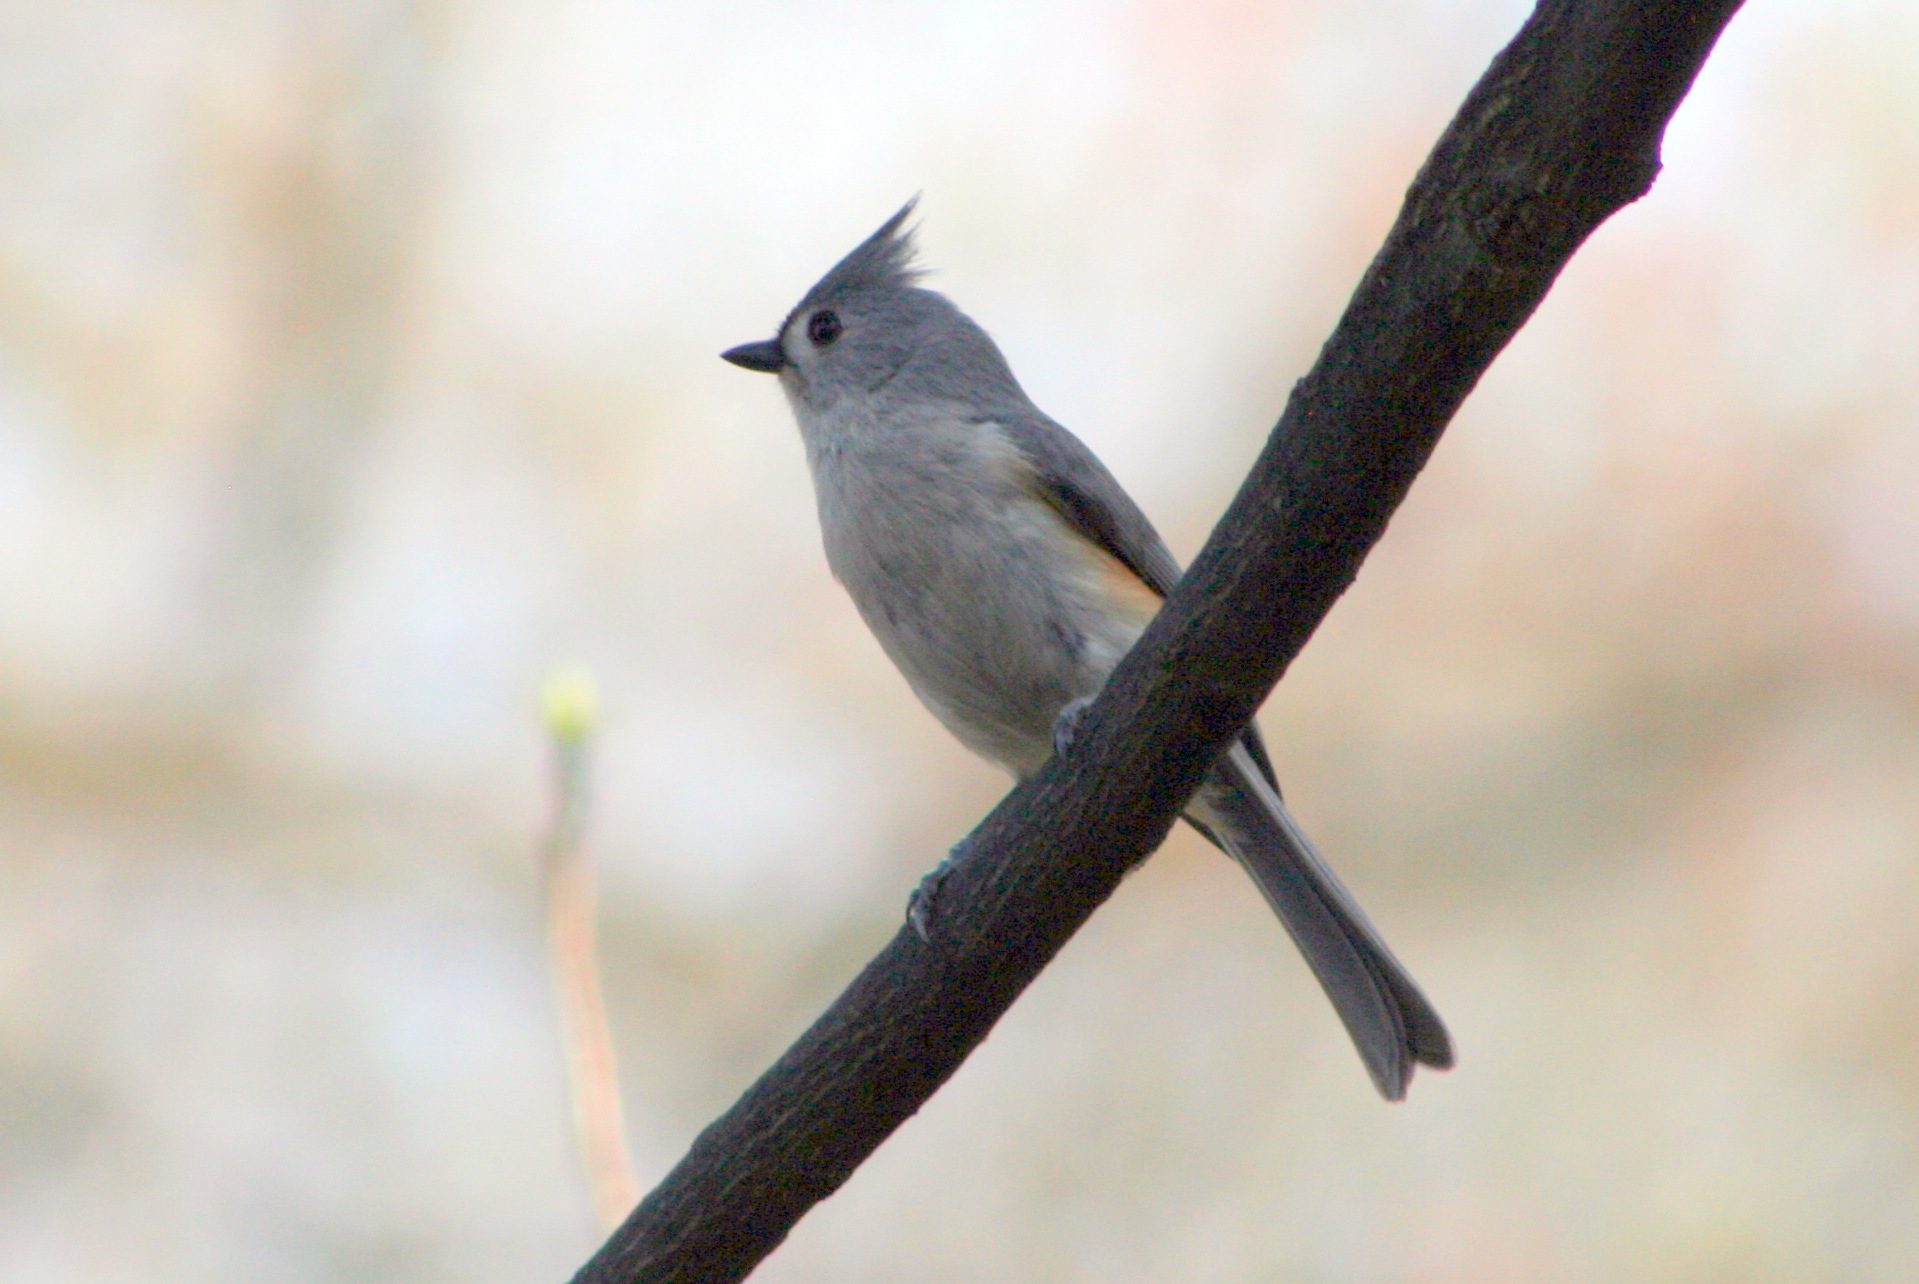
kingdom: Animalia
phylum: Chordata
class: Aves
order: Passeriformes
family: Paridae
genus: Baeolophus
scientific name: Baeolophus bicolor
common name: Tufted titmouse
